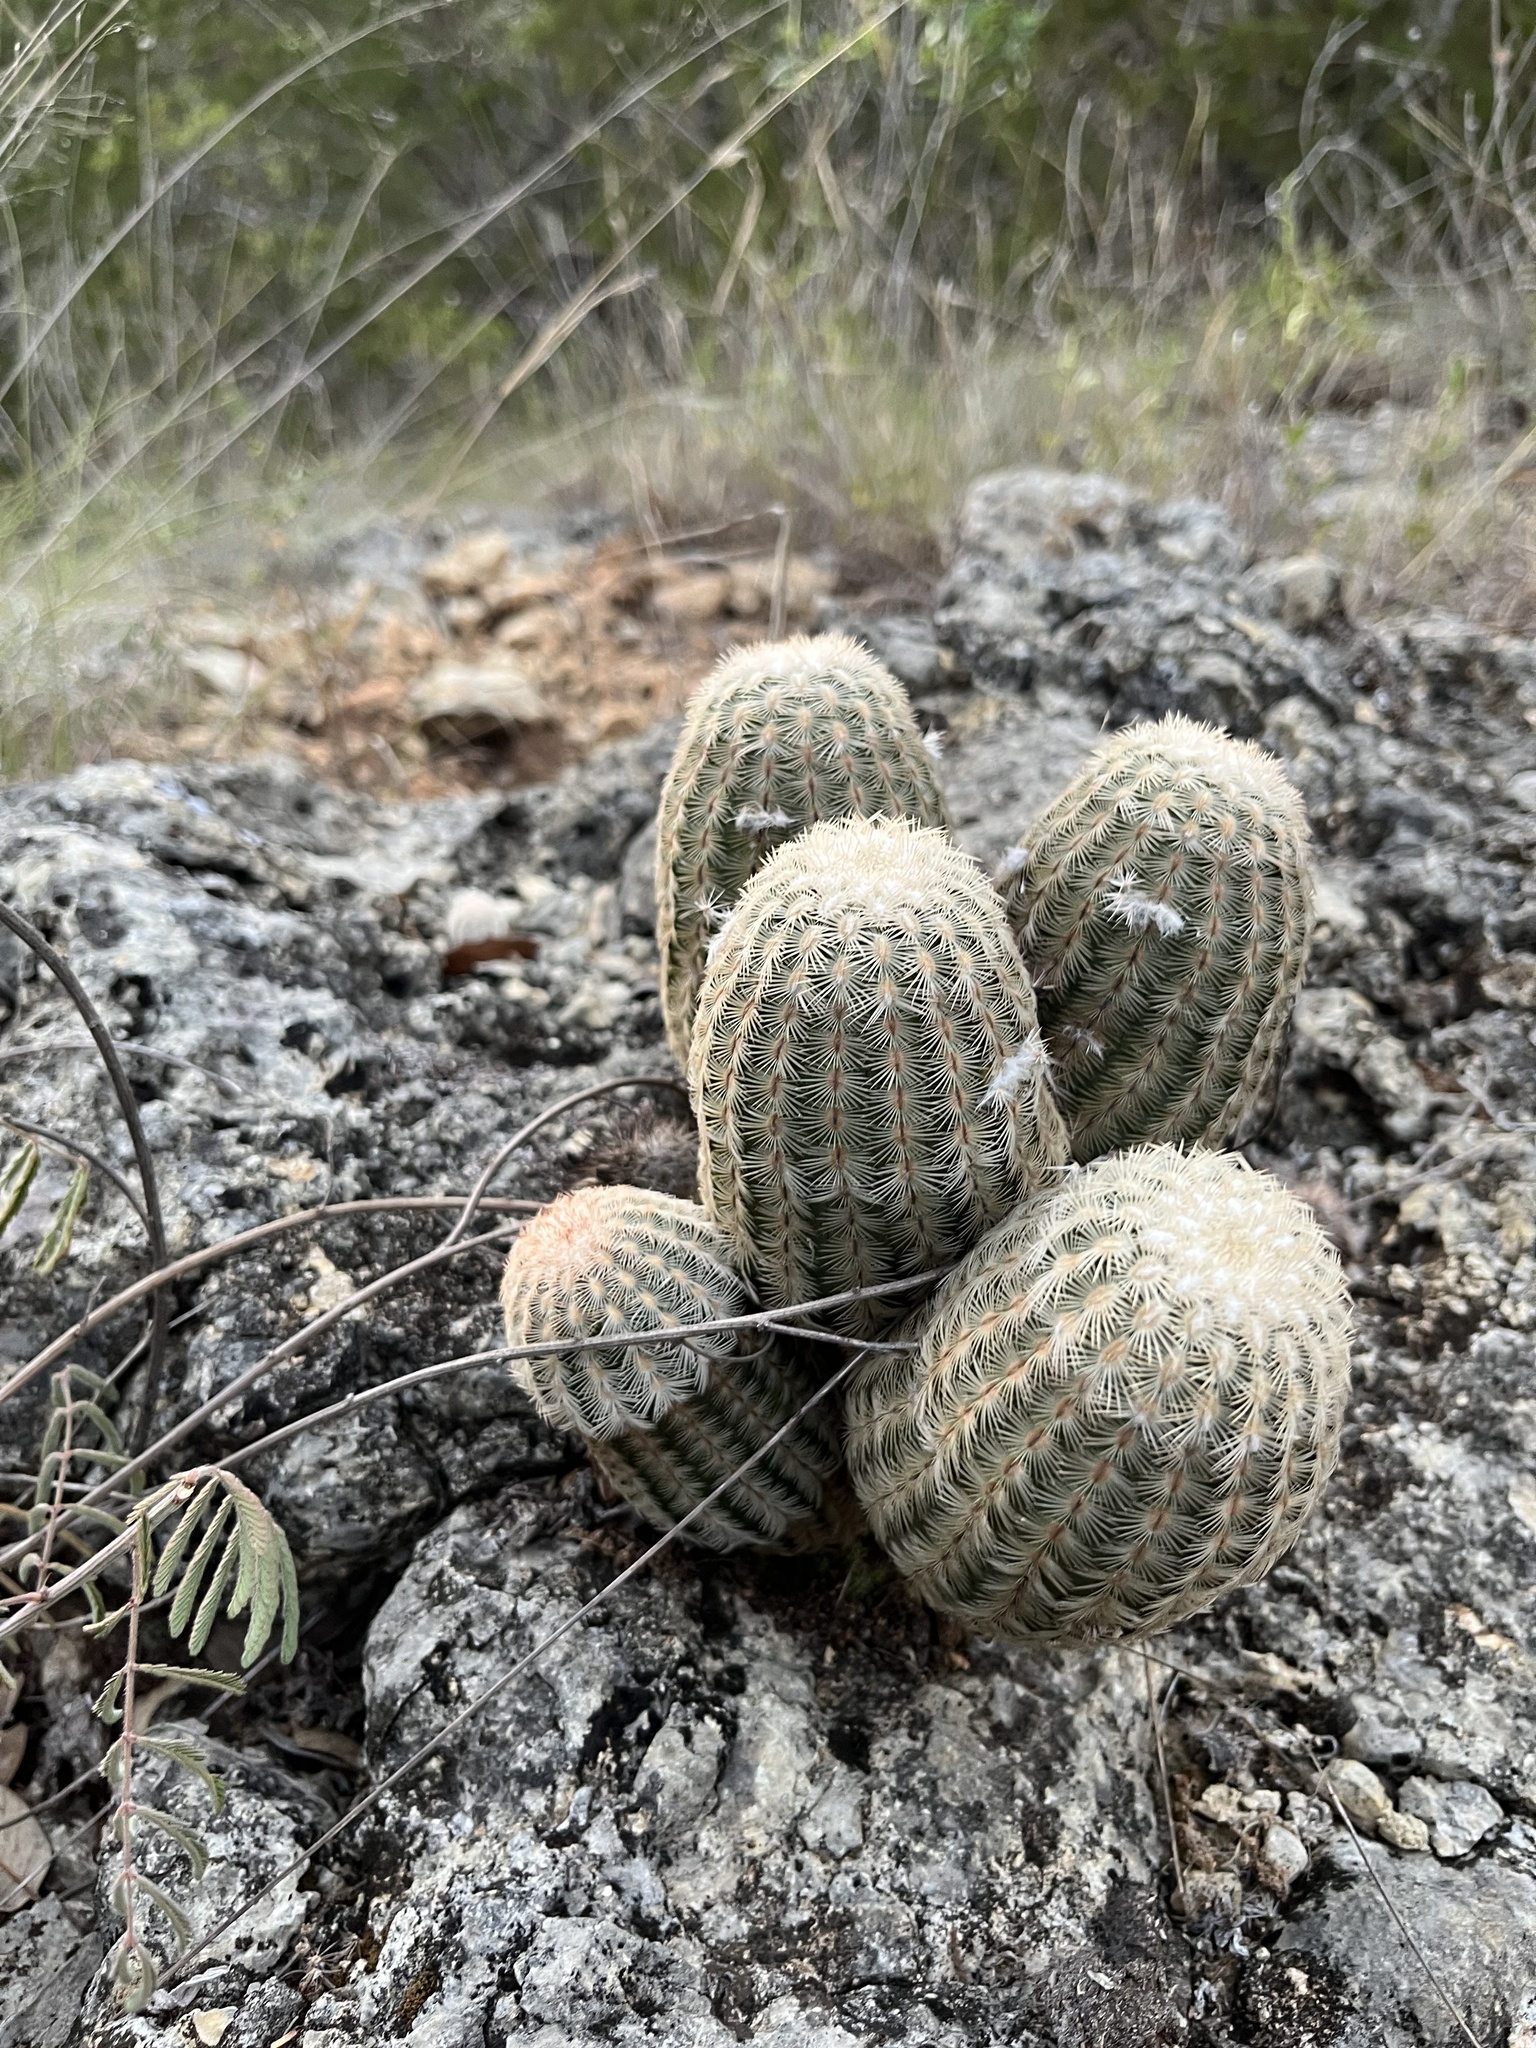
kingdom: Plantae
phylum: Tracheophyta
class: Magnoliopsida
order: Caryophyllales
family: Cactaceae
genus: Echinocereus
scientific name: Echinocereus reichenbachii
